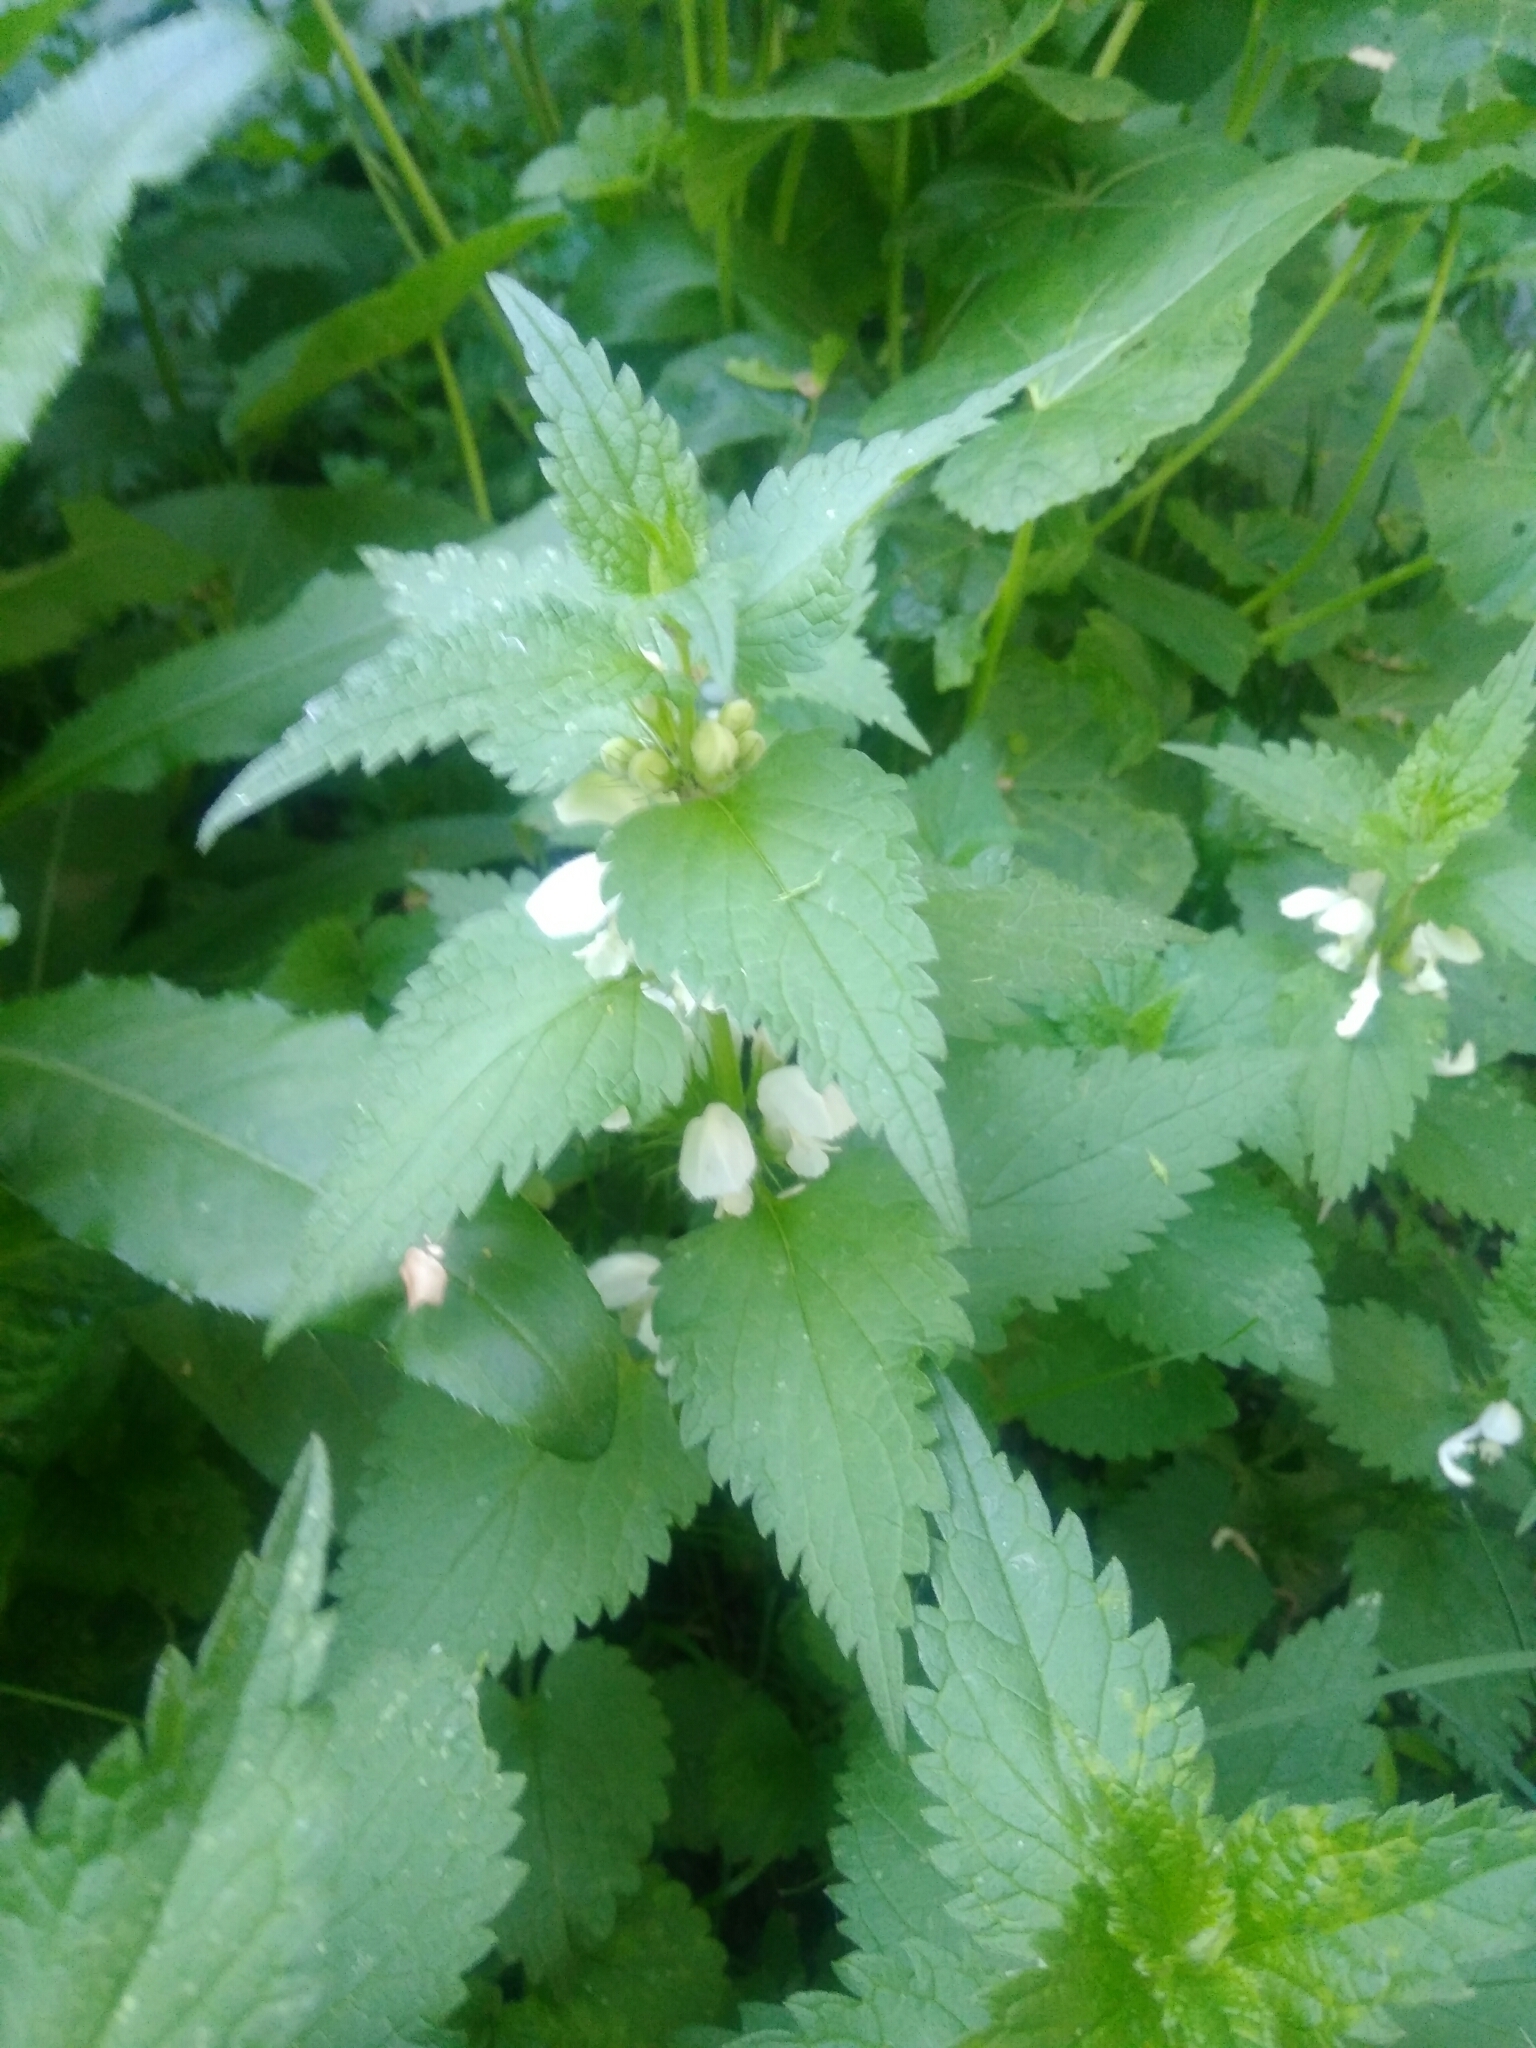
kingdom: Plantae
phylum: Tracheophyta
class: Magnoliopsida
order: Lamiales
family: Lamiaceae
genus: Lamium
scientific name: Lamium album
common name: White dead-nettle
